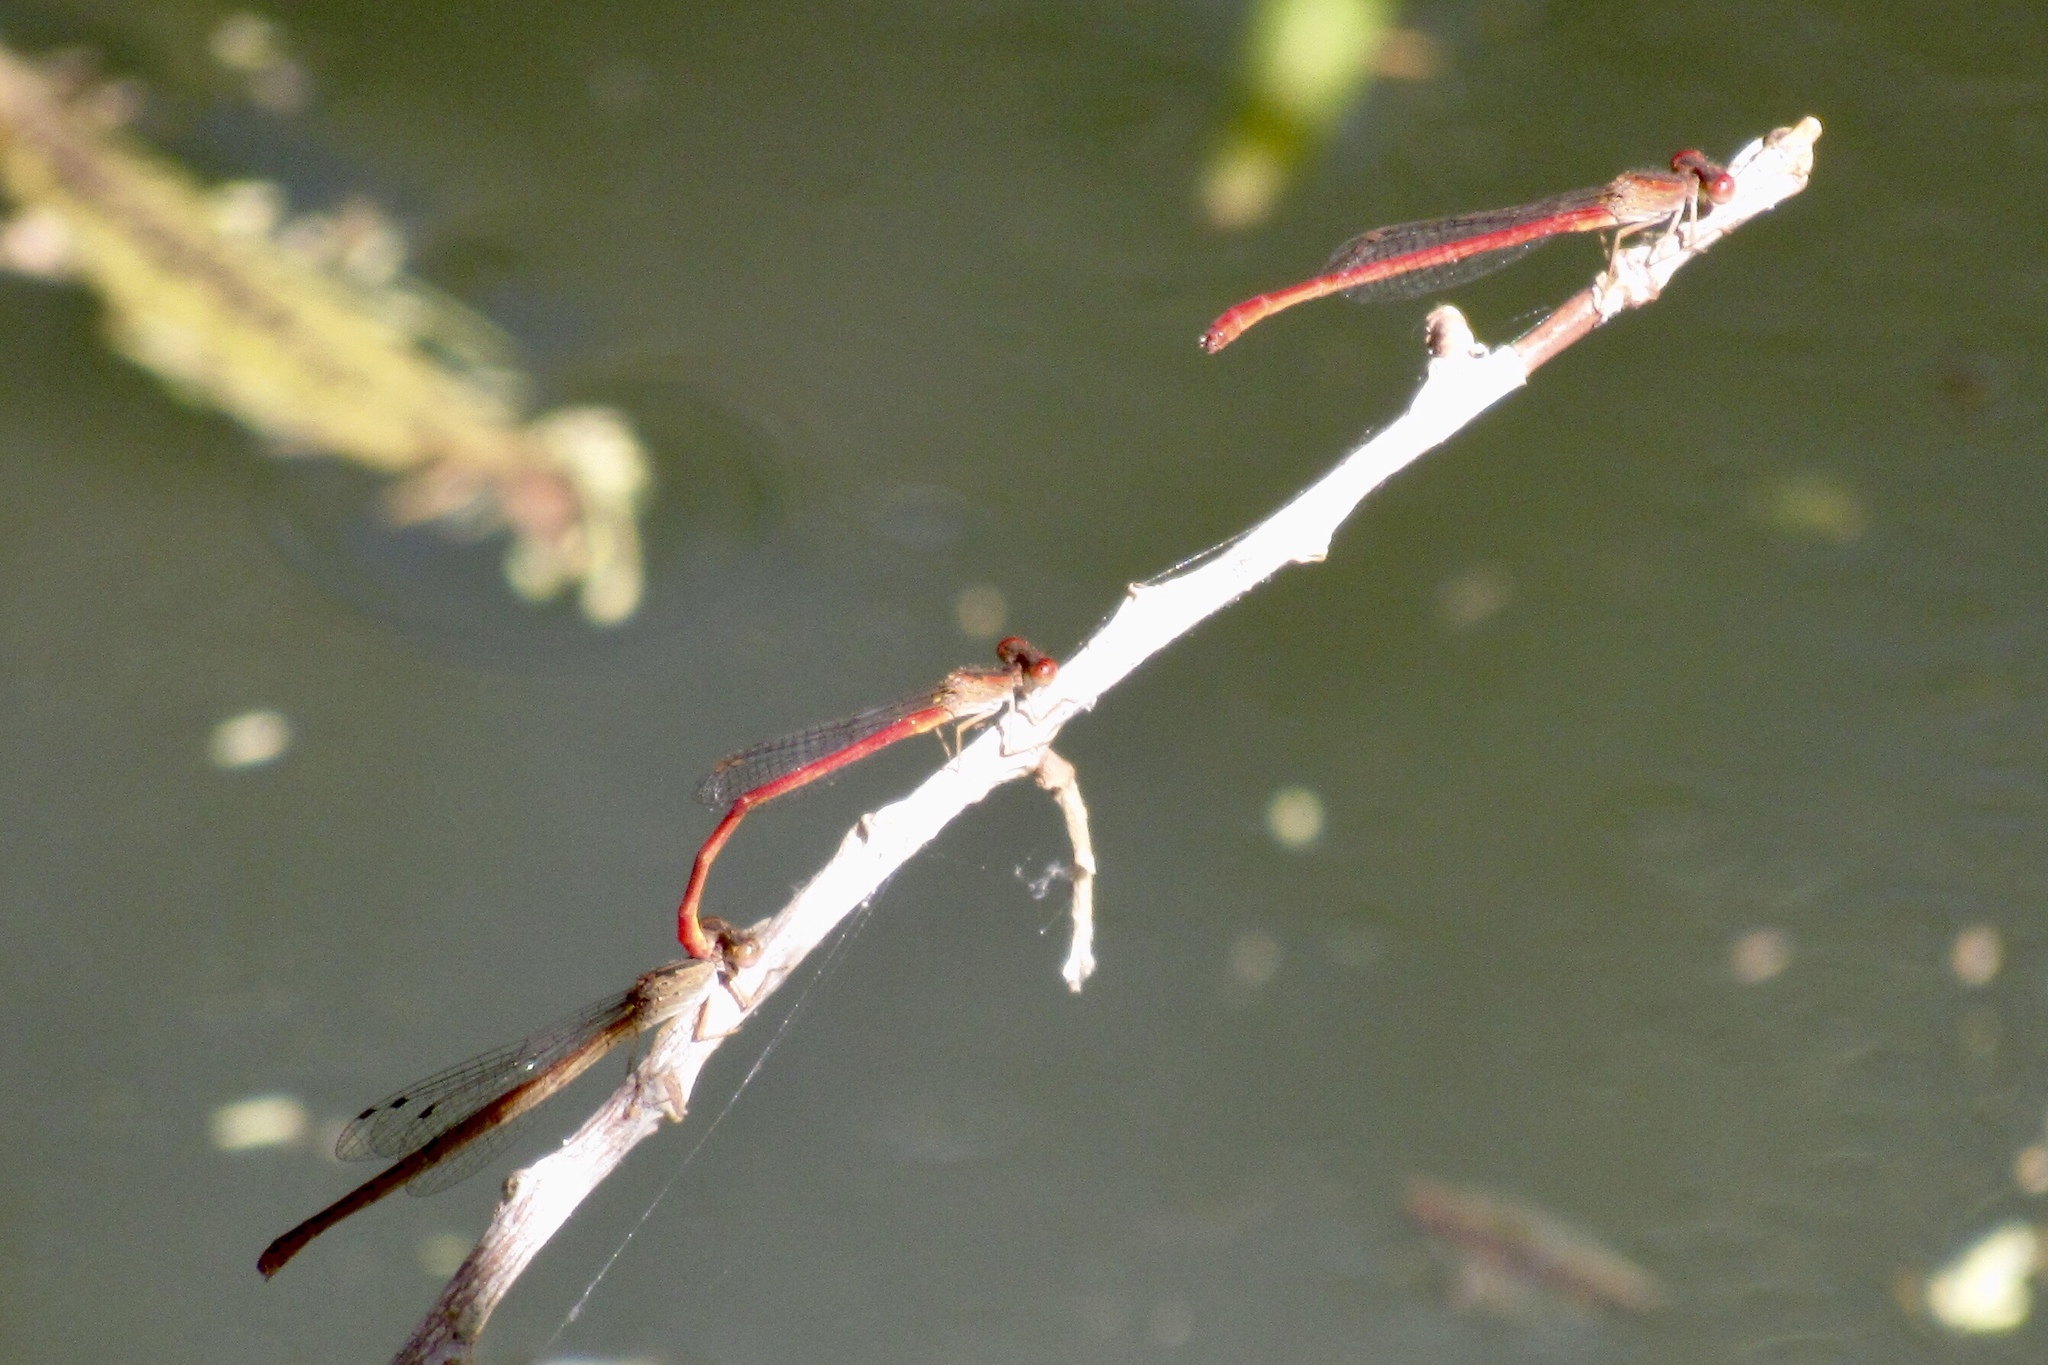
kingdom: Animalia
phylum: Arthropoda
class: Insecta
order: Odonata
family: Coenagrionidae
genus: Telebasis
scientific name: Telebasis salva
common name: Desert firetail
